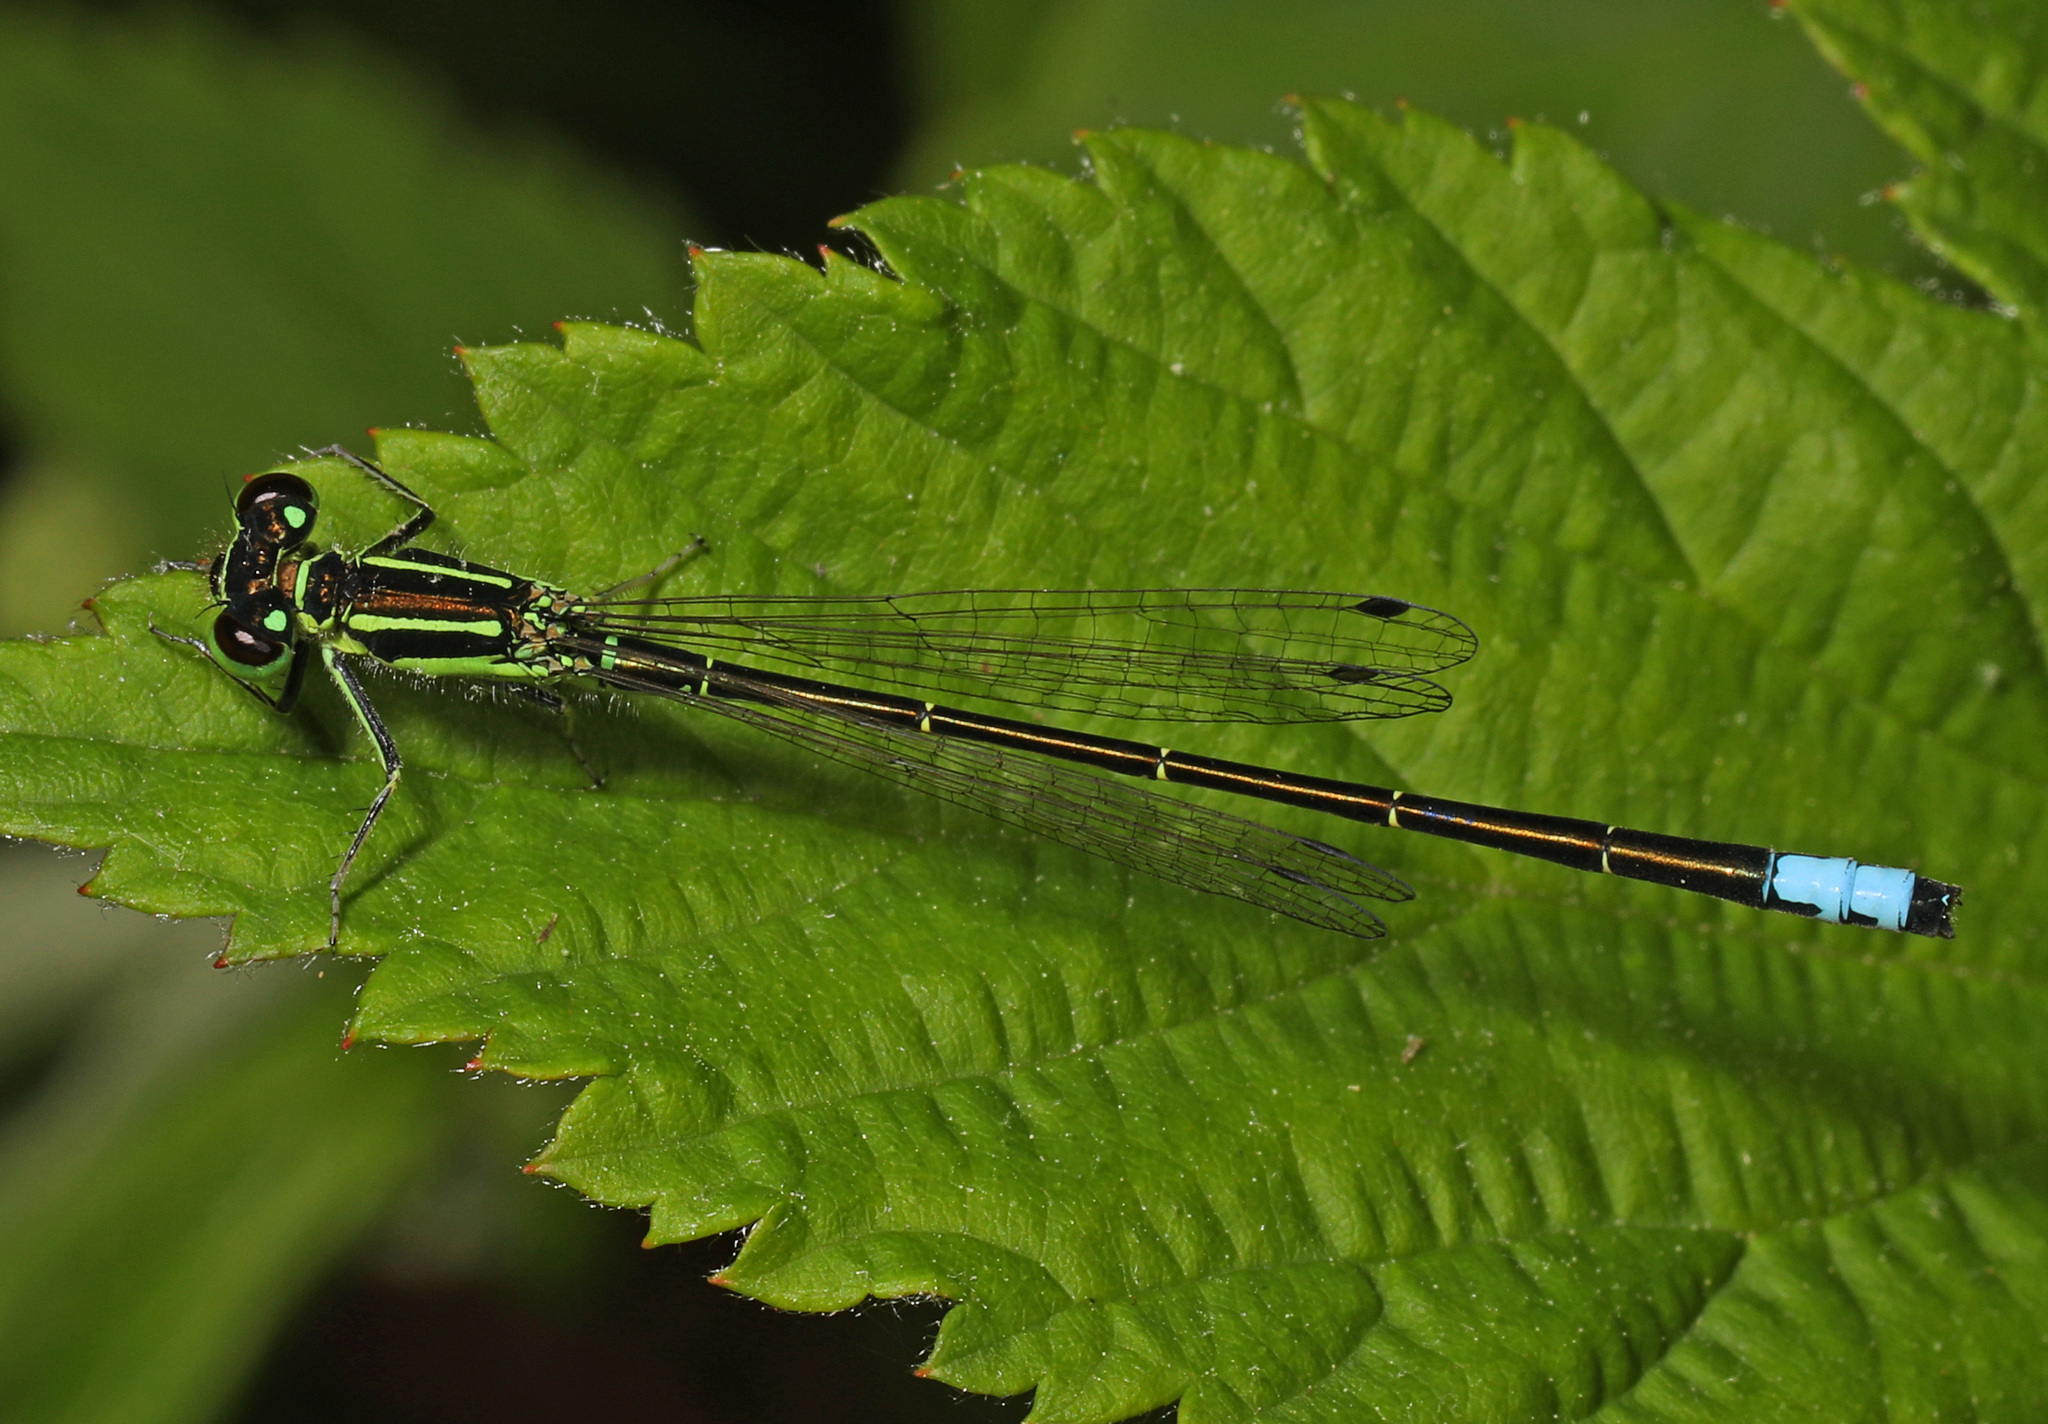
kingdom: Animalia
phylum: Arthropoda
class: Insecta
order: Odonata
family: Coenagrionidae
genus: Ischnura
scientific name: Ischnura verticalis
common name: Eastern forktail
